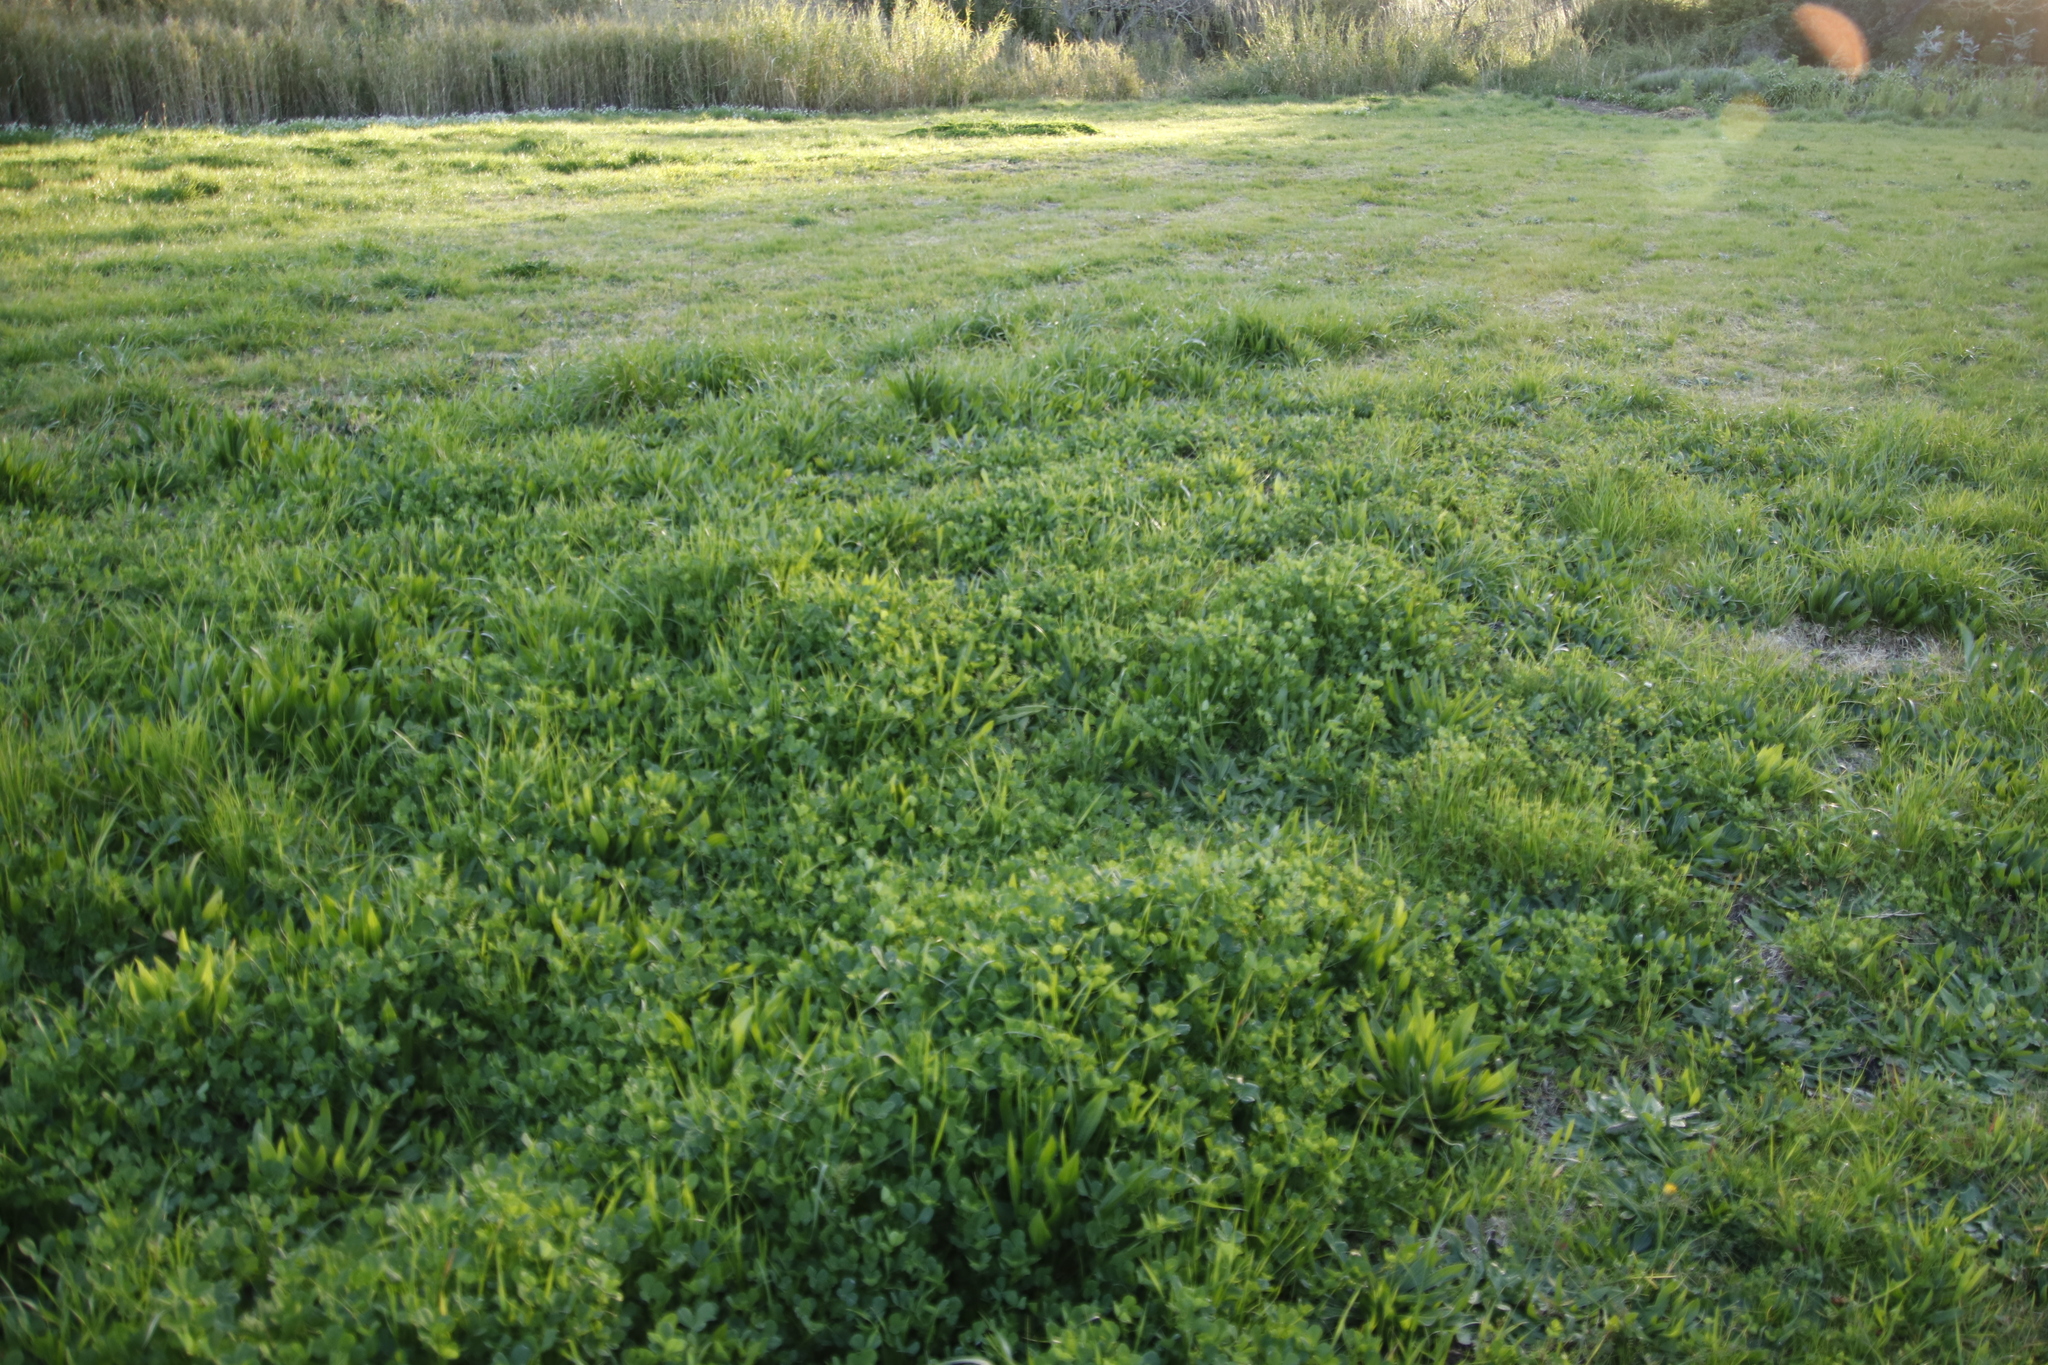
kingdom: Plantae
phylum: Tracheophyta
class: Magnoliopsida
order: Fabales
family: Fabaceae
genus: Medicago
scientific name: Medicago polymorpha
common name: Burclover
